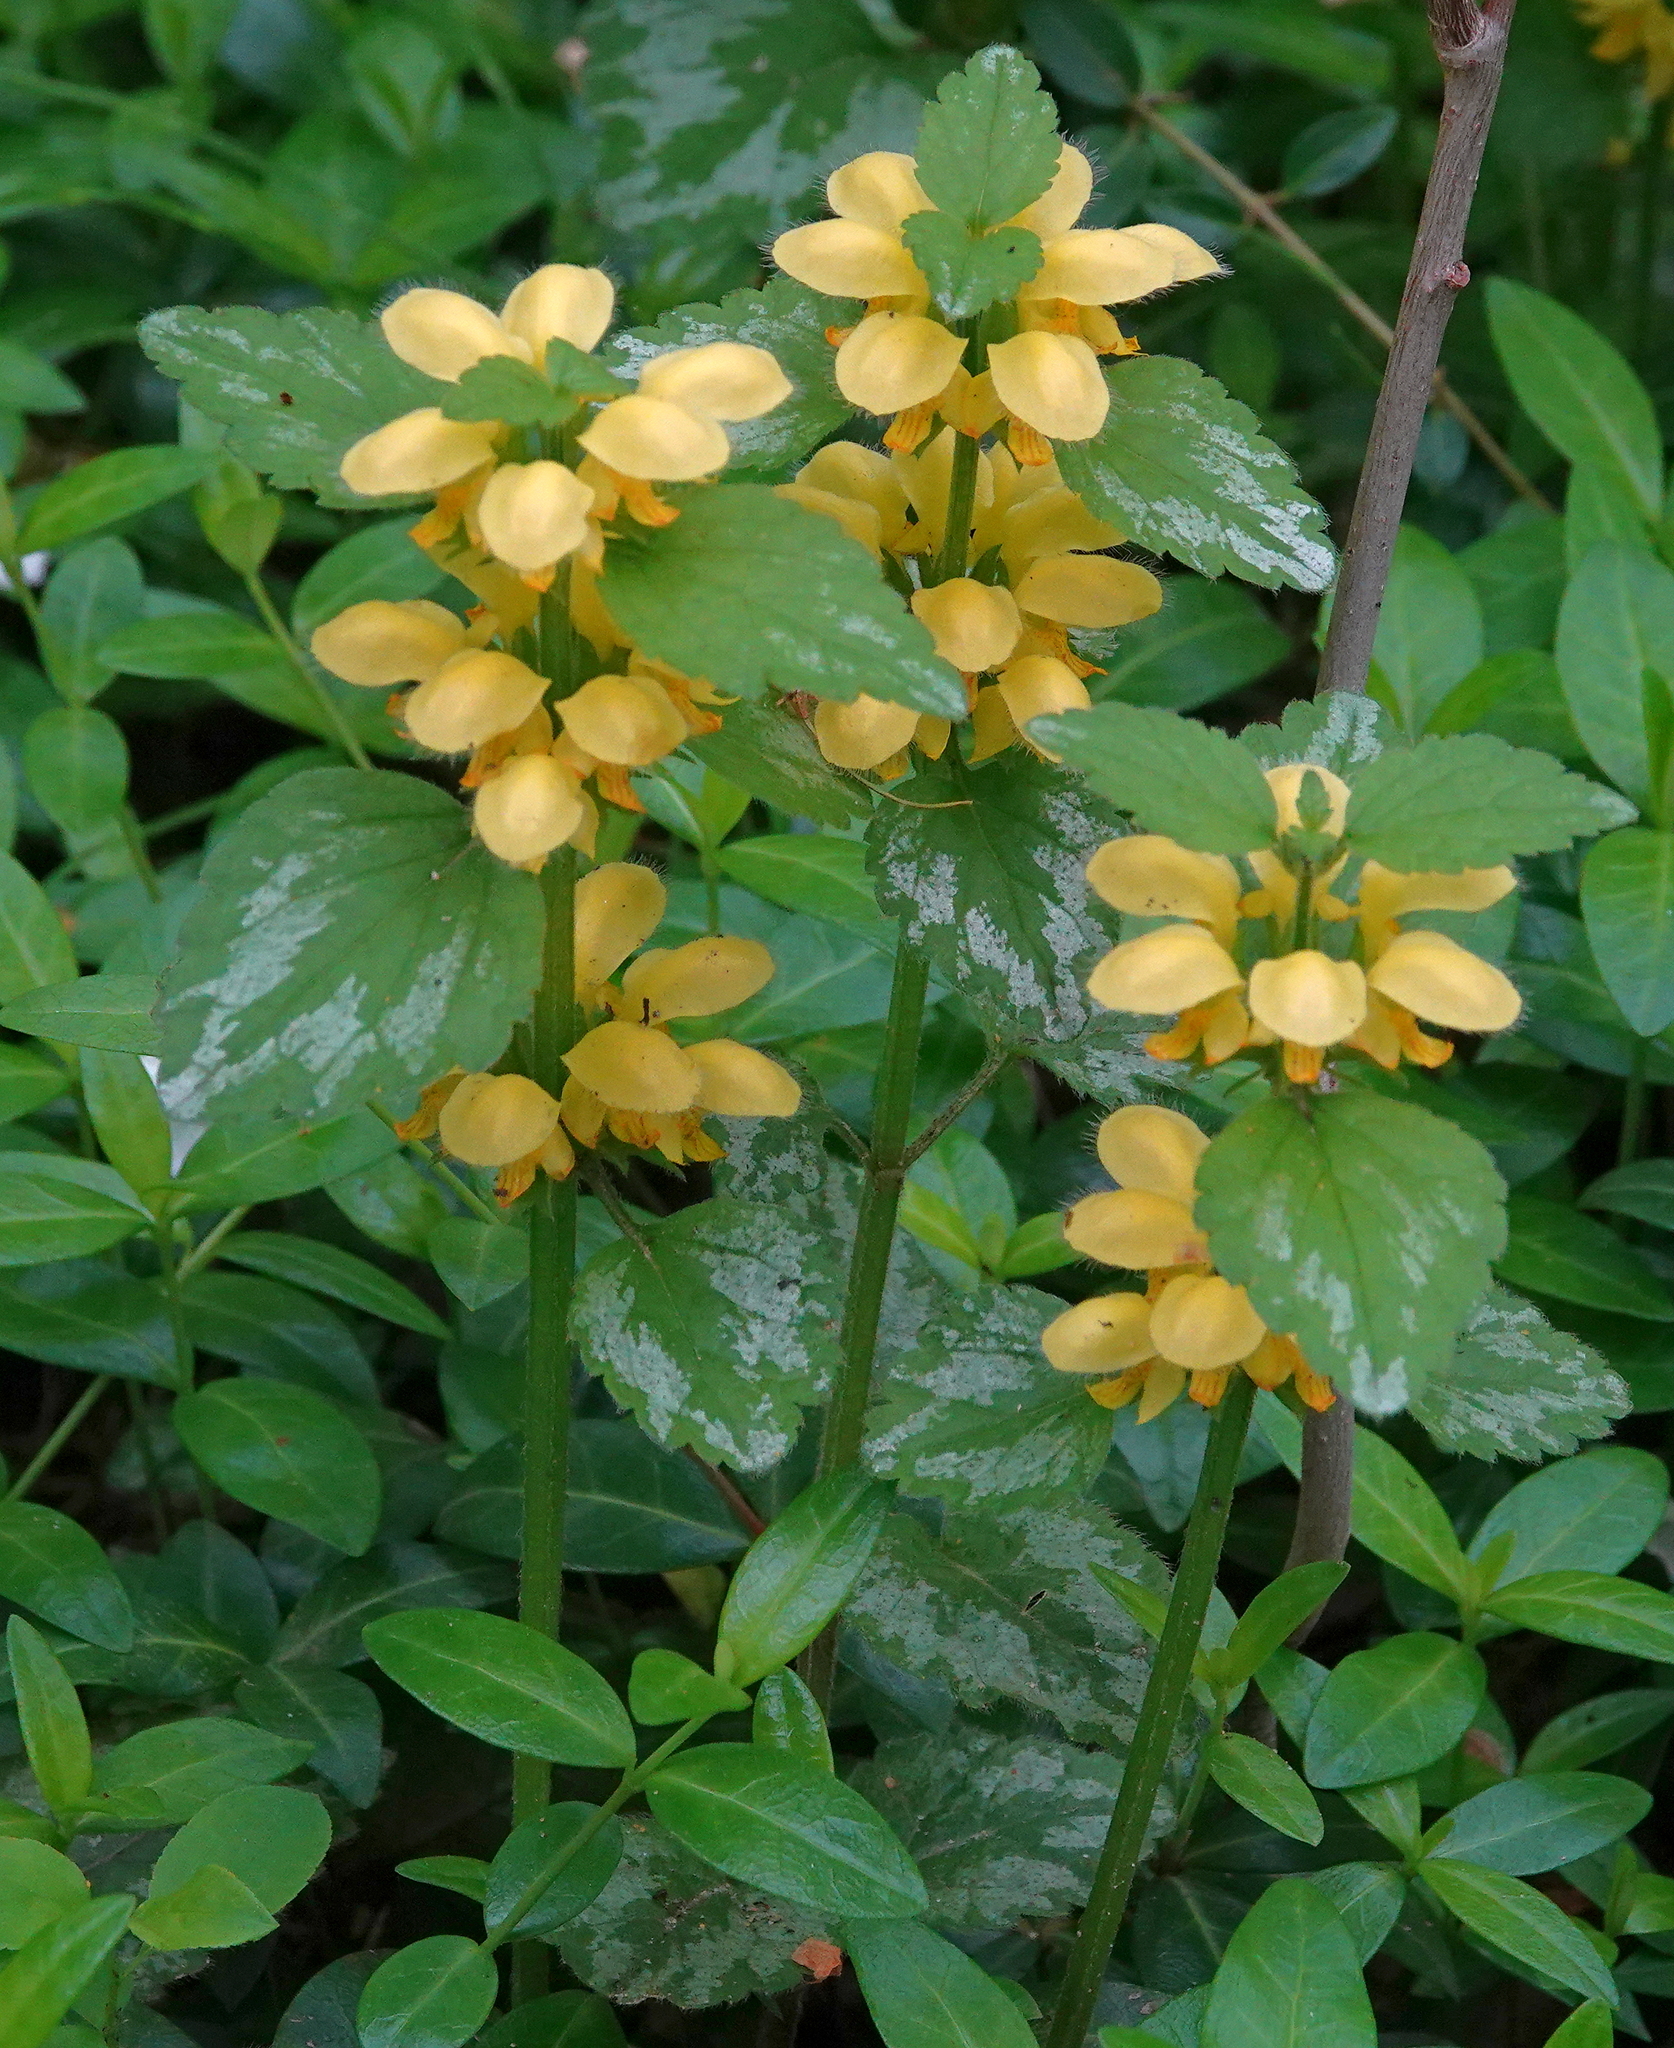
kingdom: Plantae
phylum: Tracheophyta
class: Magnoliopsida
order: Lamiales
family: Lamiaceae
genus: Lamium
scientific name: Lamium galeobdolon
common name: Yellow archangel
